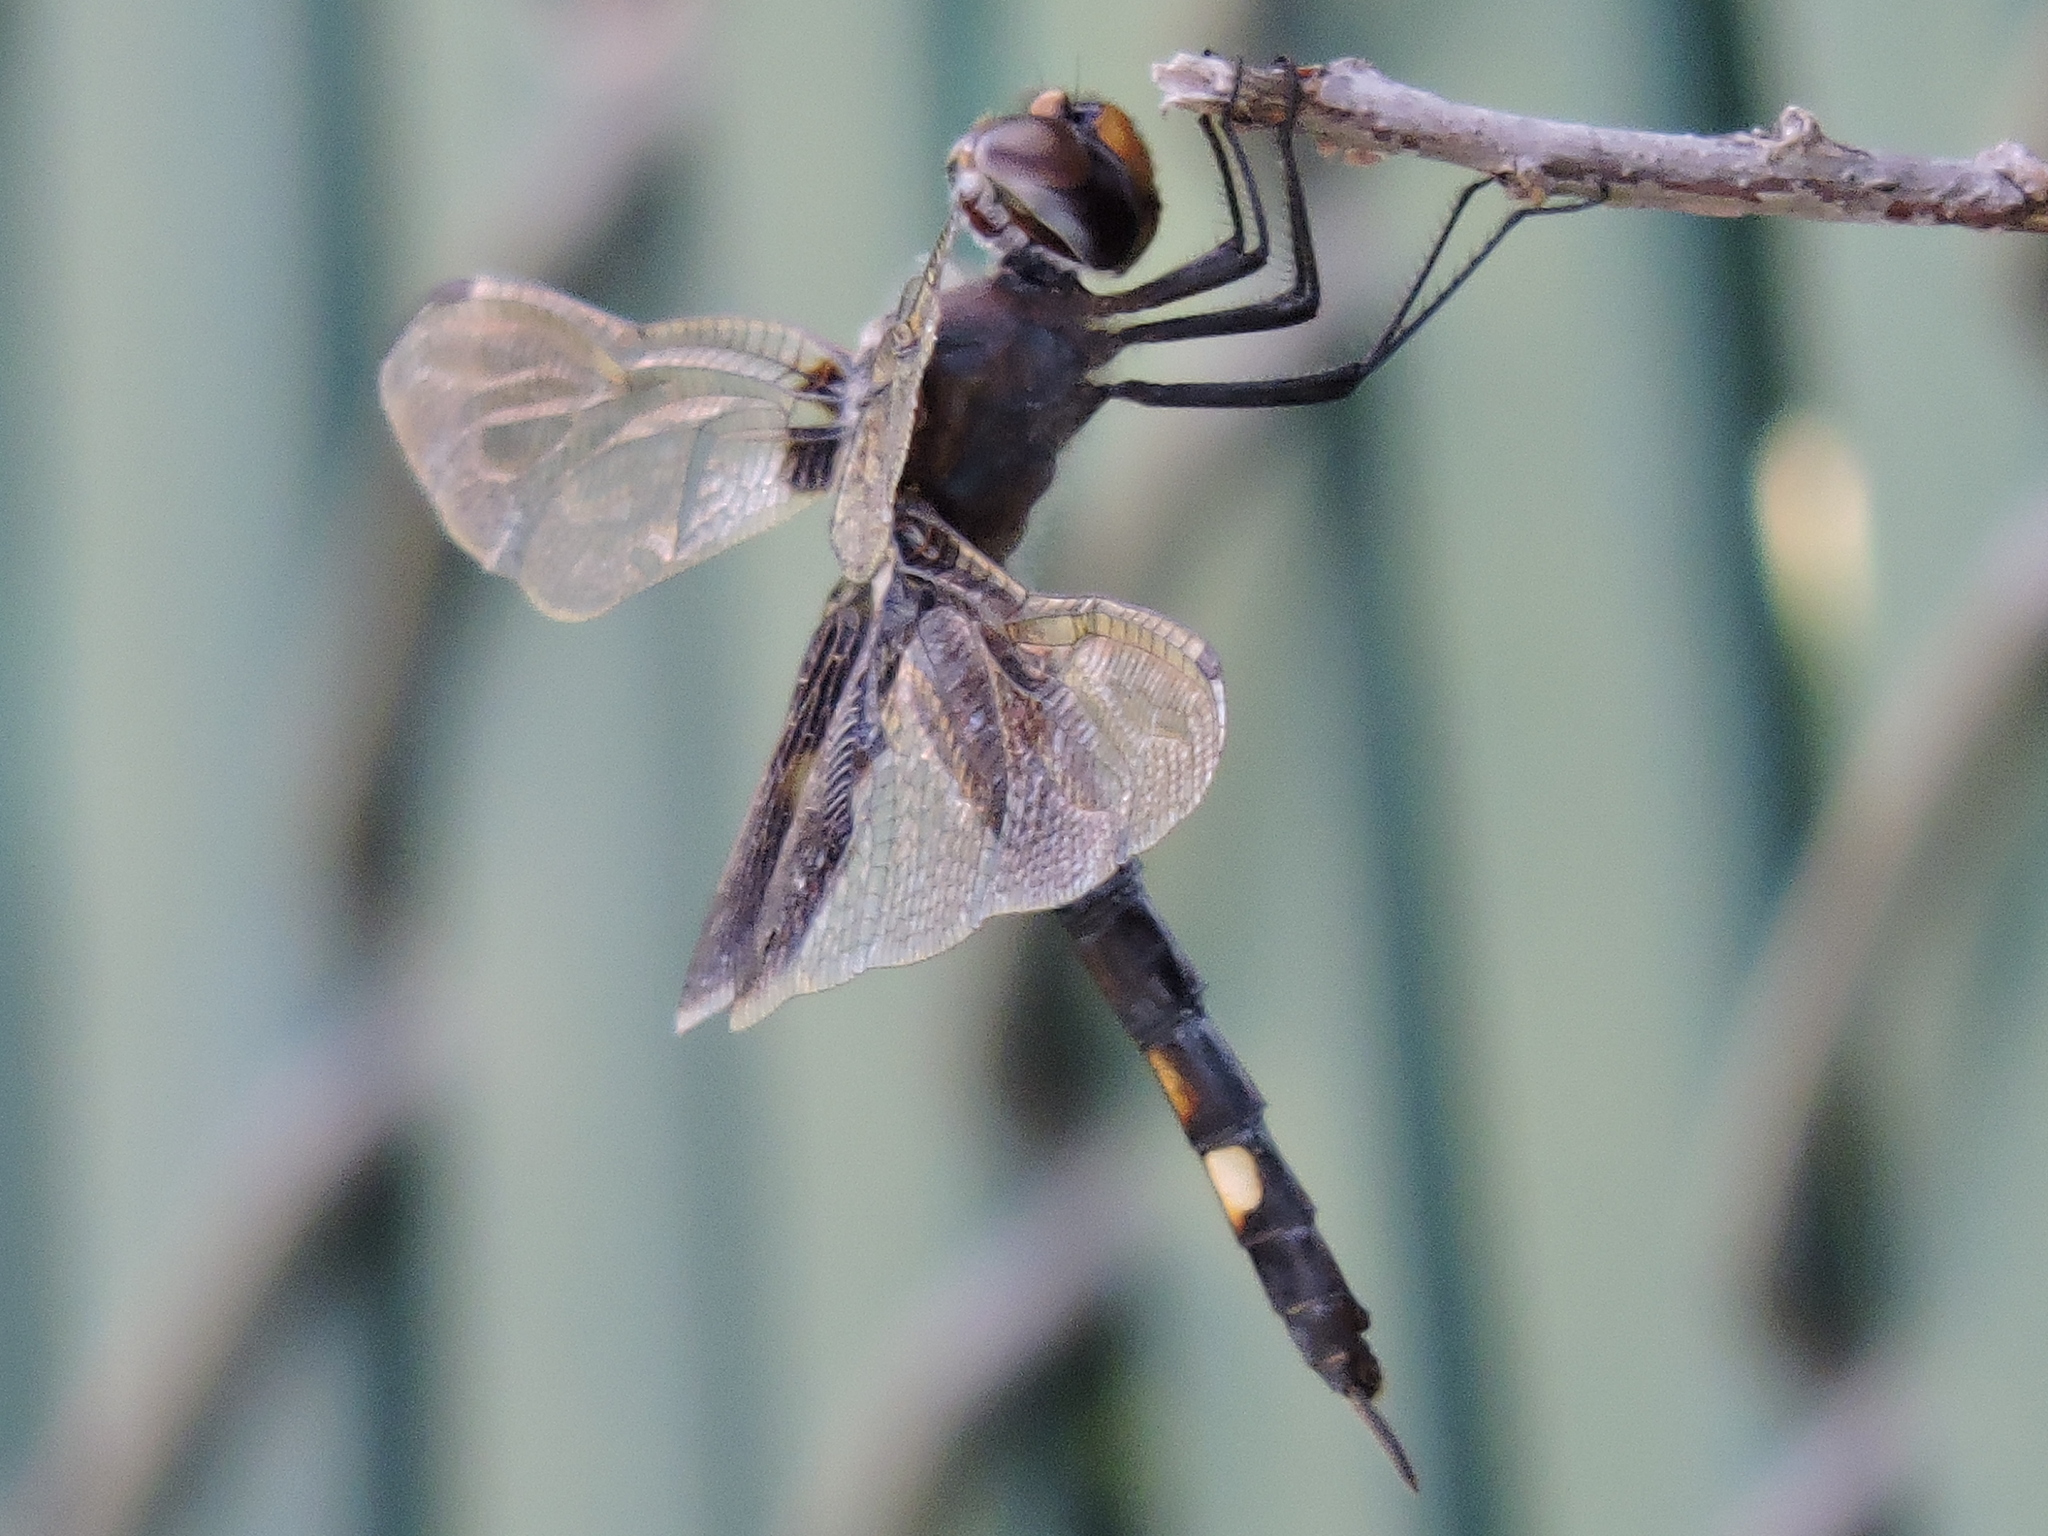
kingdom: Animalia
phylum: Arthropoda
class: Insecta
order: Odonata
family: Libellulidae
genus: Tramea
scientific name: Tramea lacerata
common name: Black saddlebags
